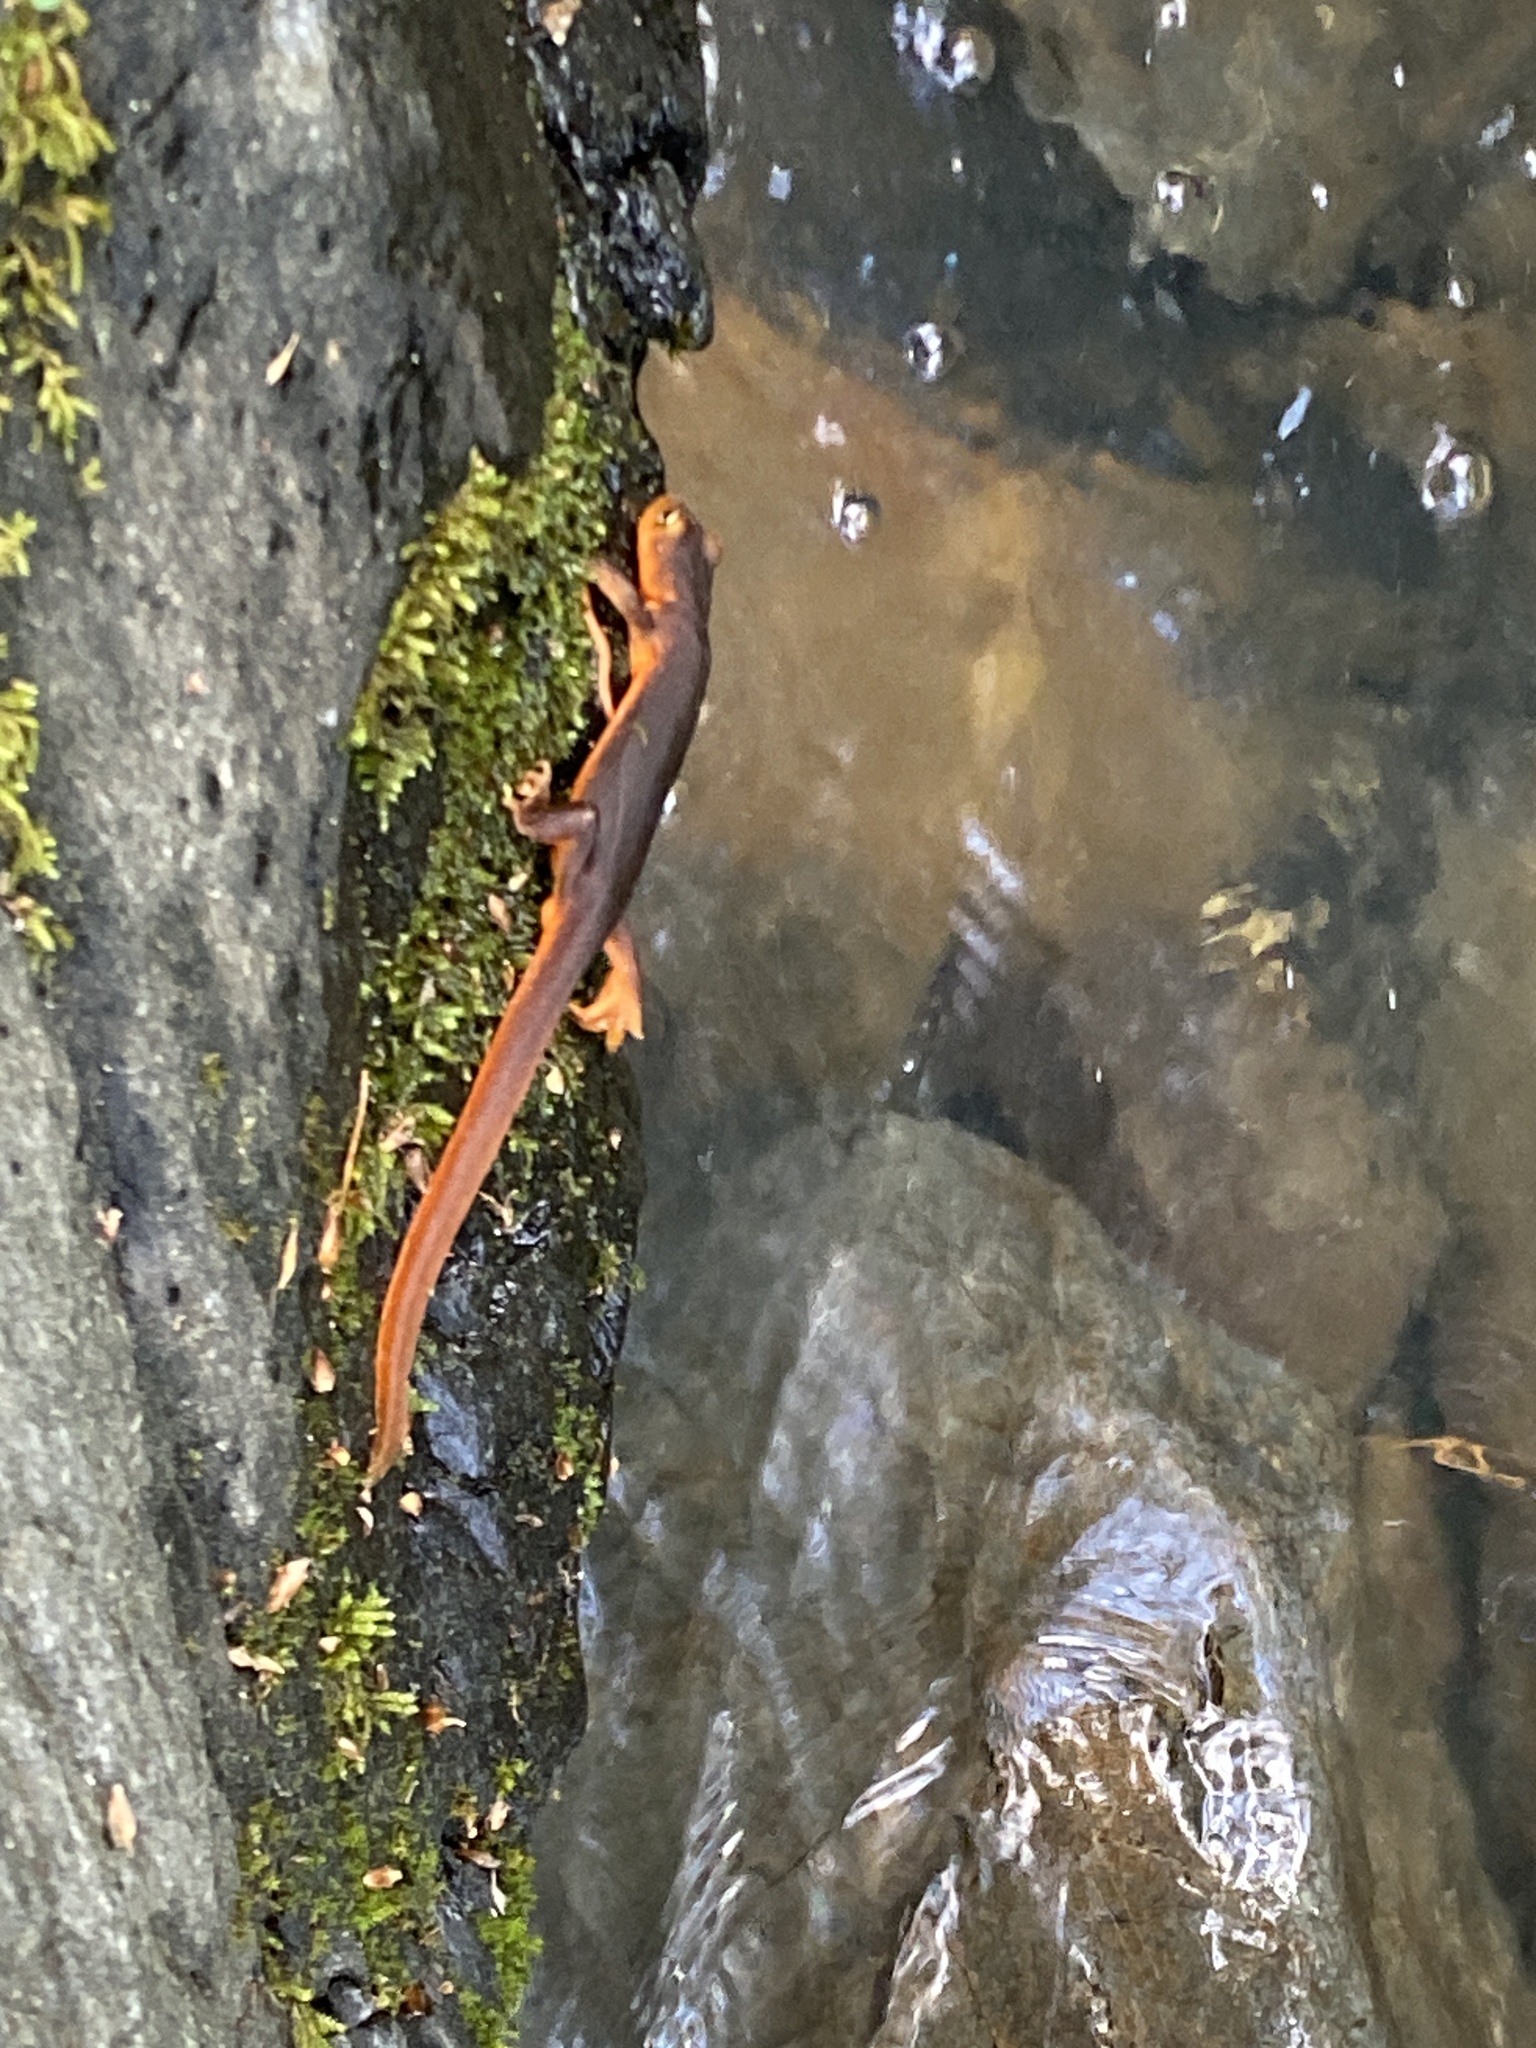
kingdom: Animalia
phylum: Chordata
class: Amphibia
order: Caudata
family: Salamandridae
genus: Taricha
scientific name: Taricha sierrae
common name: Sierra newt
